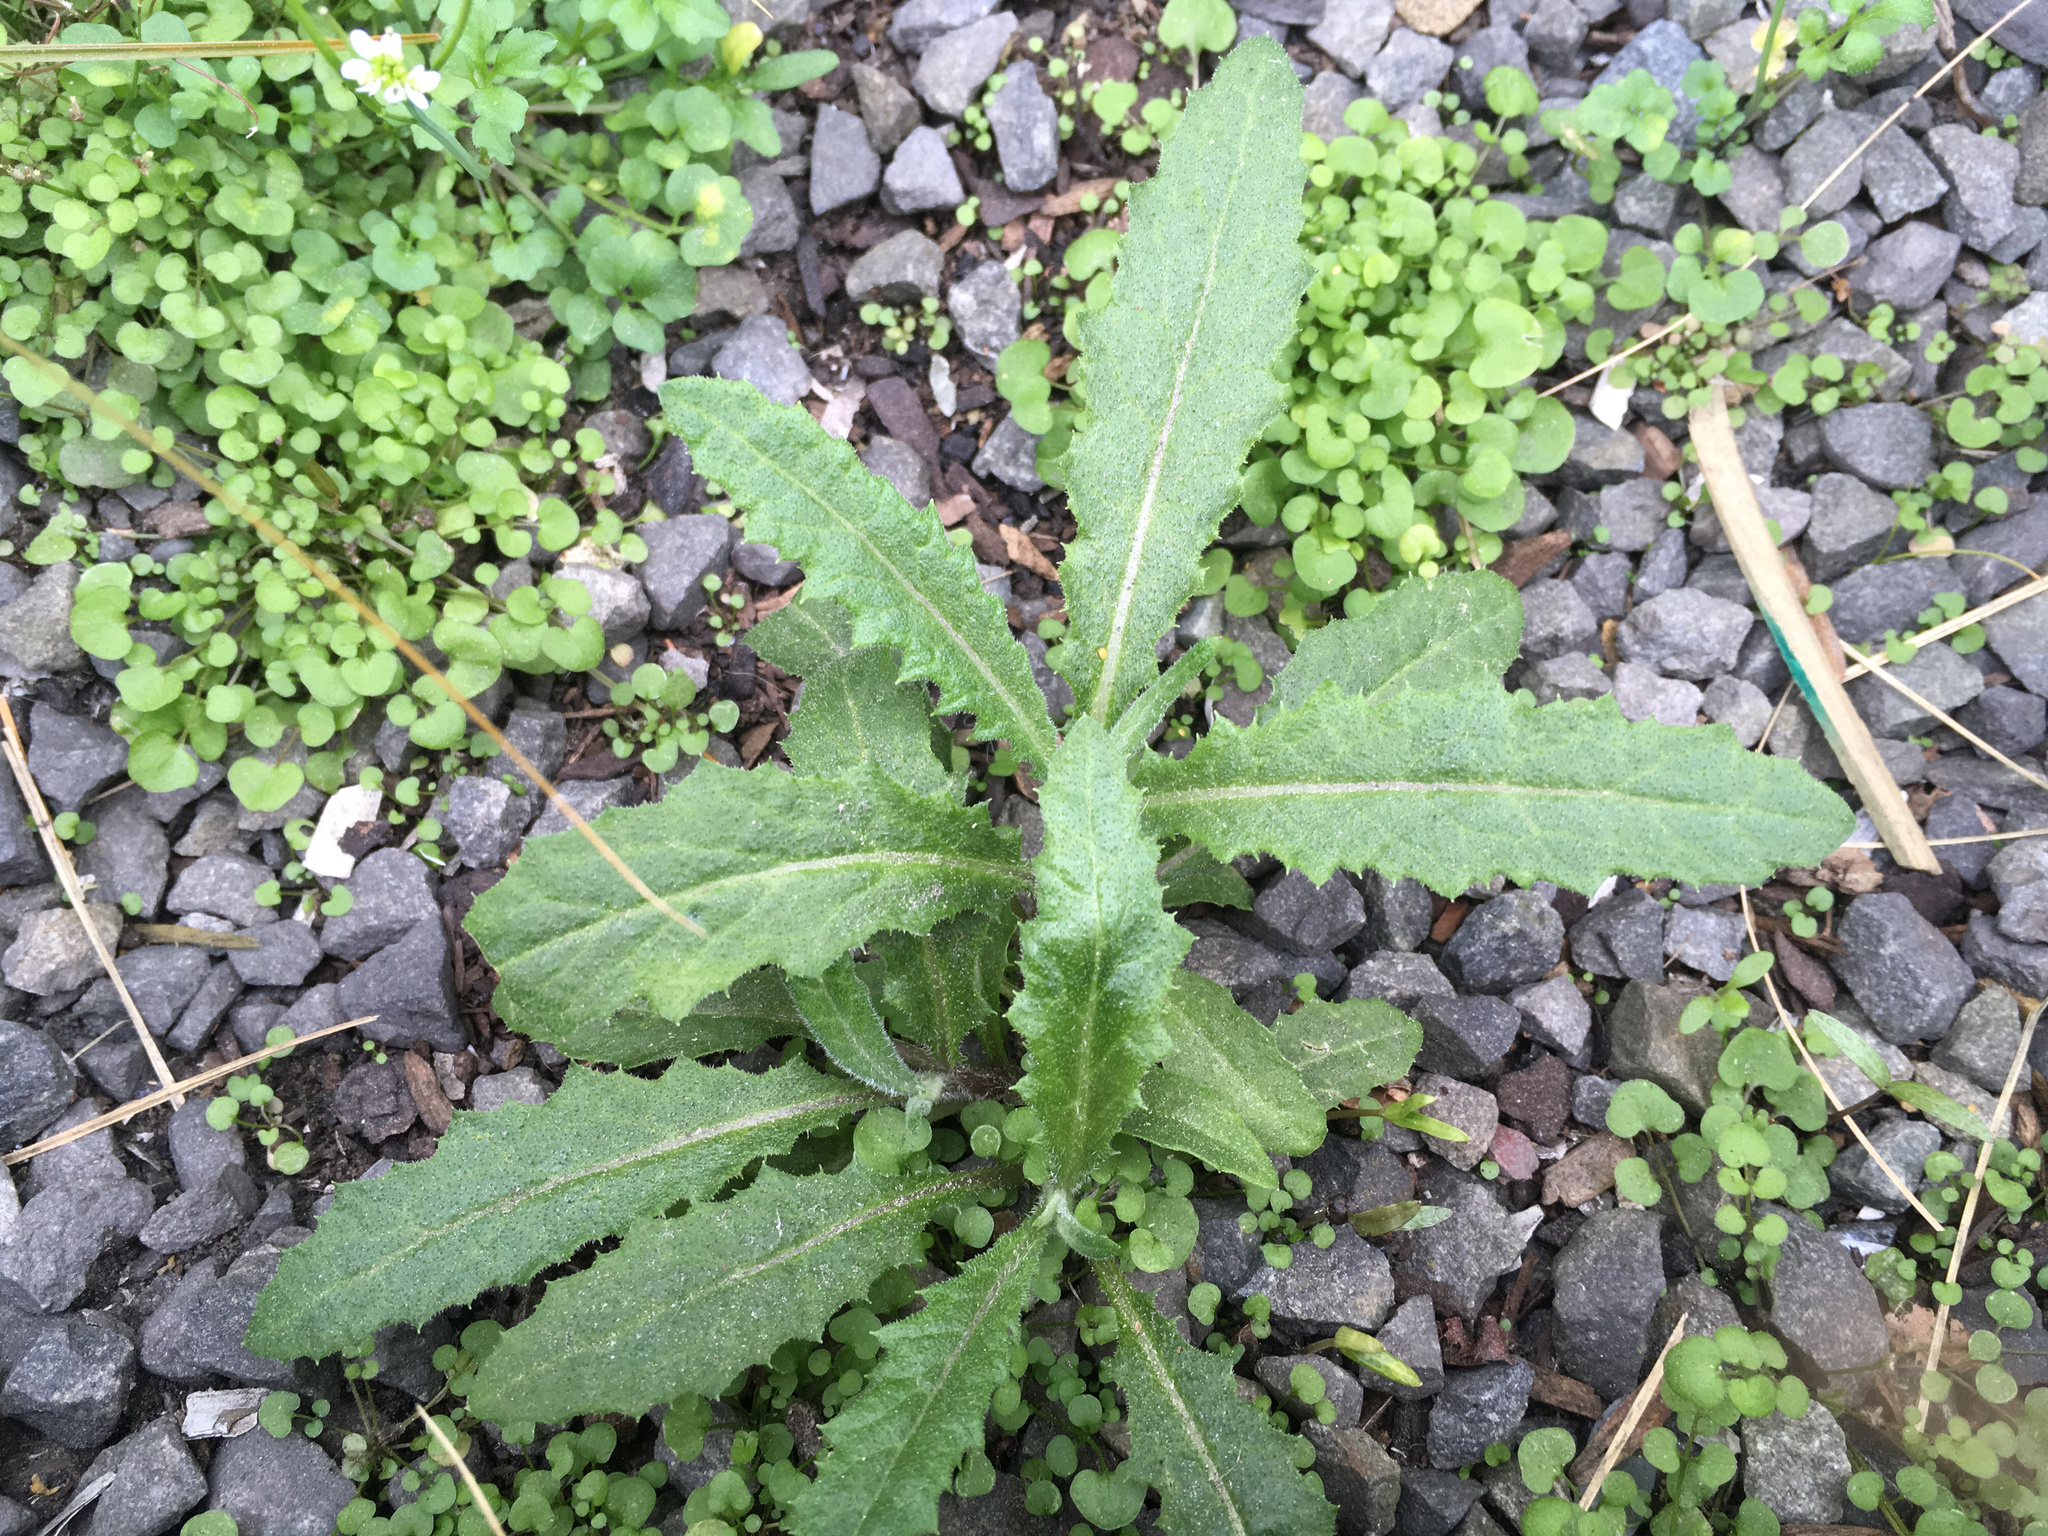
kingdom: Plantae
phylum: Tracheophyta
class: Magnoliopsida
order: Asterales
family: Asteraceae
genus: Senecio
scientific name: Senecio minimus
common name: Toothed fireweed
